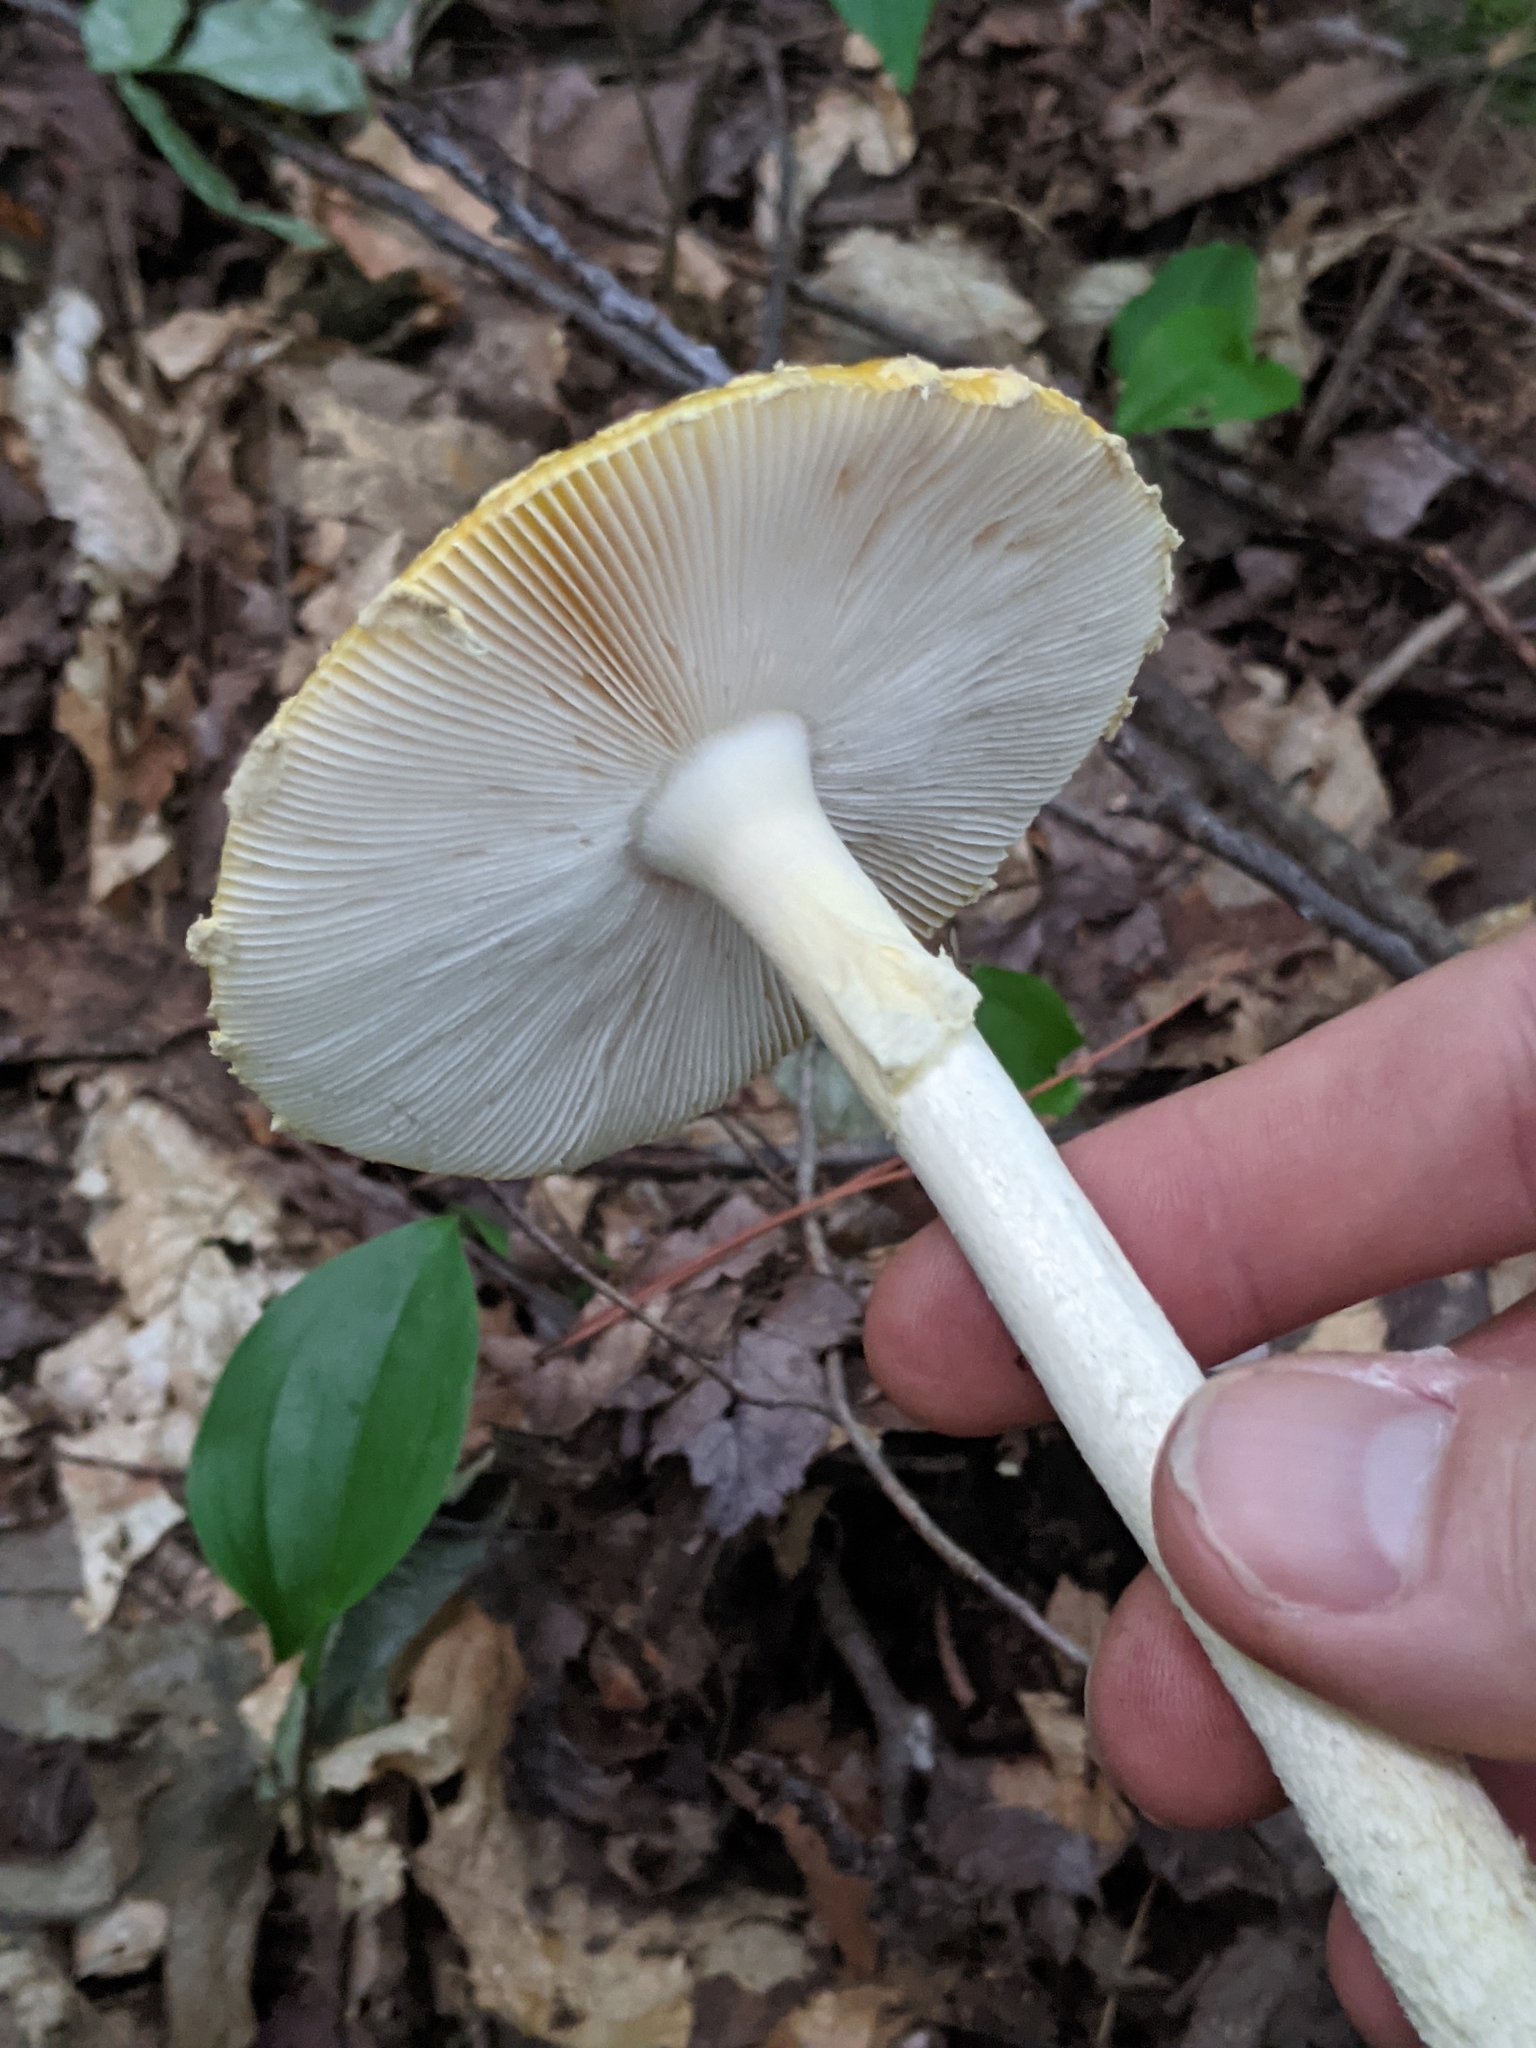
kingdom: Fungi
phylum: Basidiomycota
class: Agaricomycetes
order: Agaricales
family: Amanitaceae
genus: Amanita
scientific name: Amanita muscaria
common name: Fly agaric
